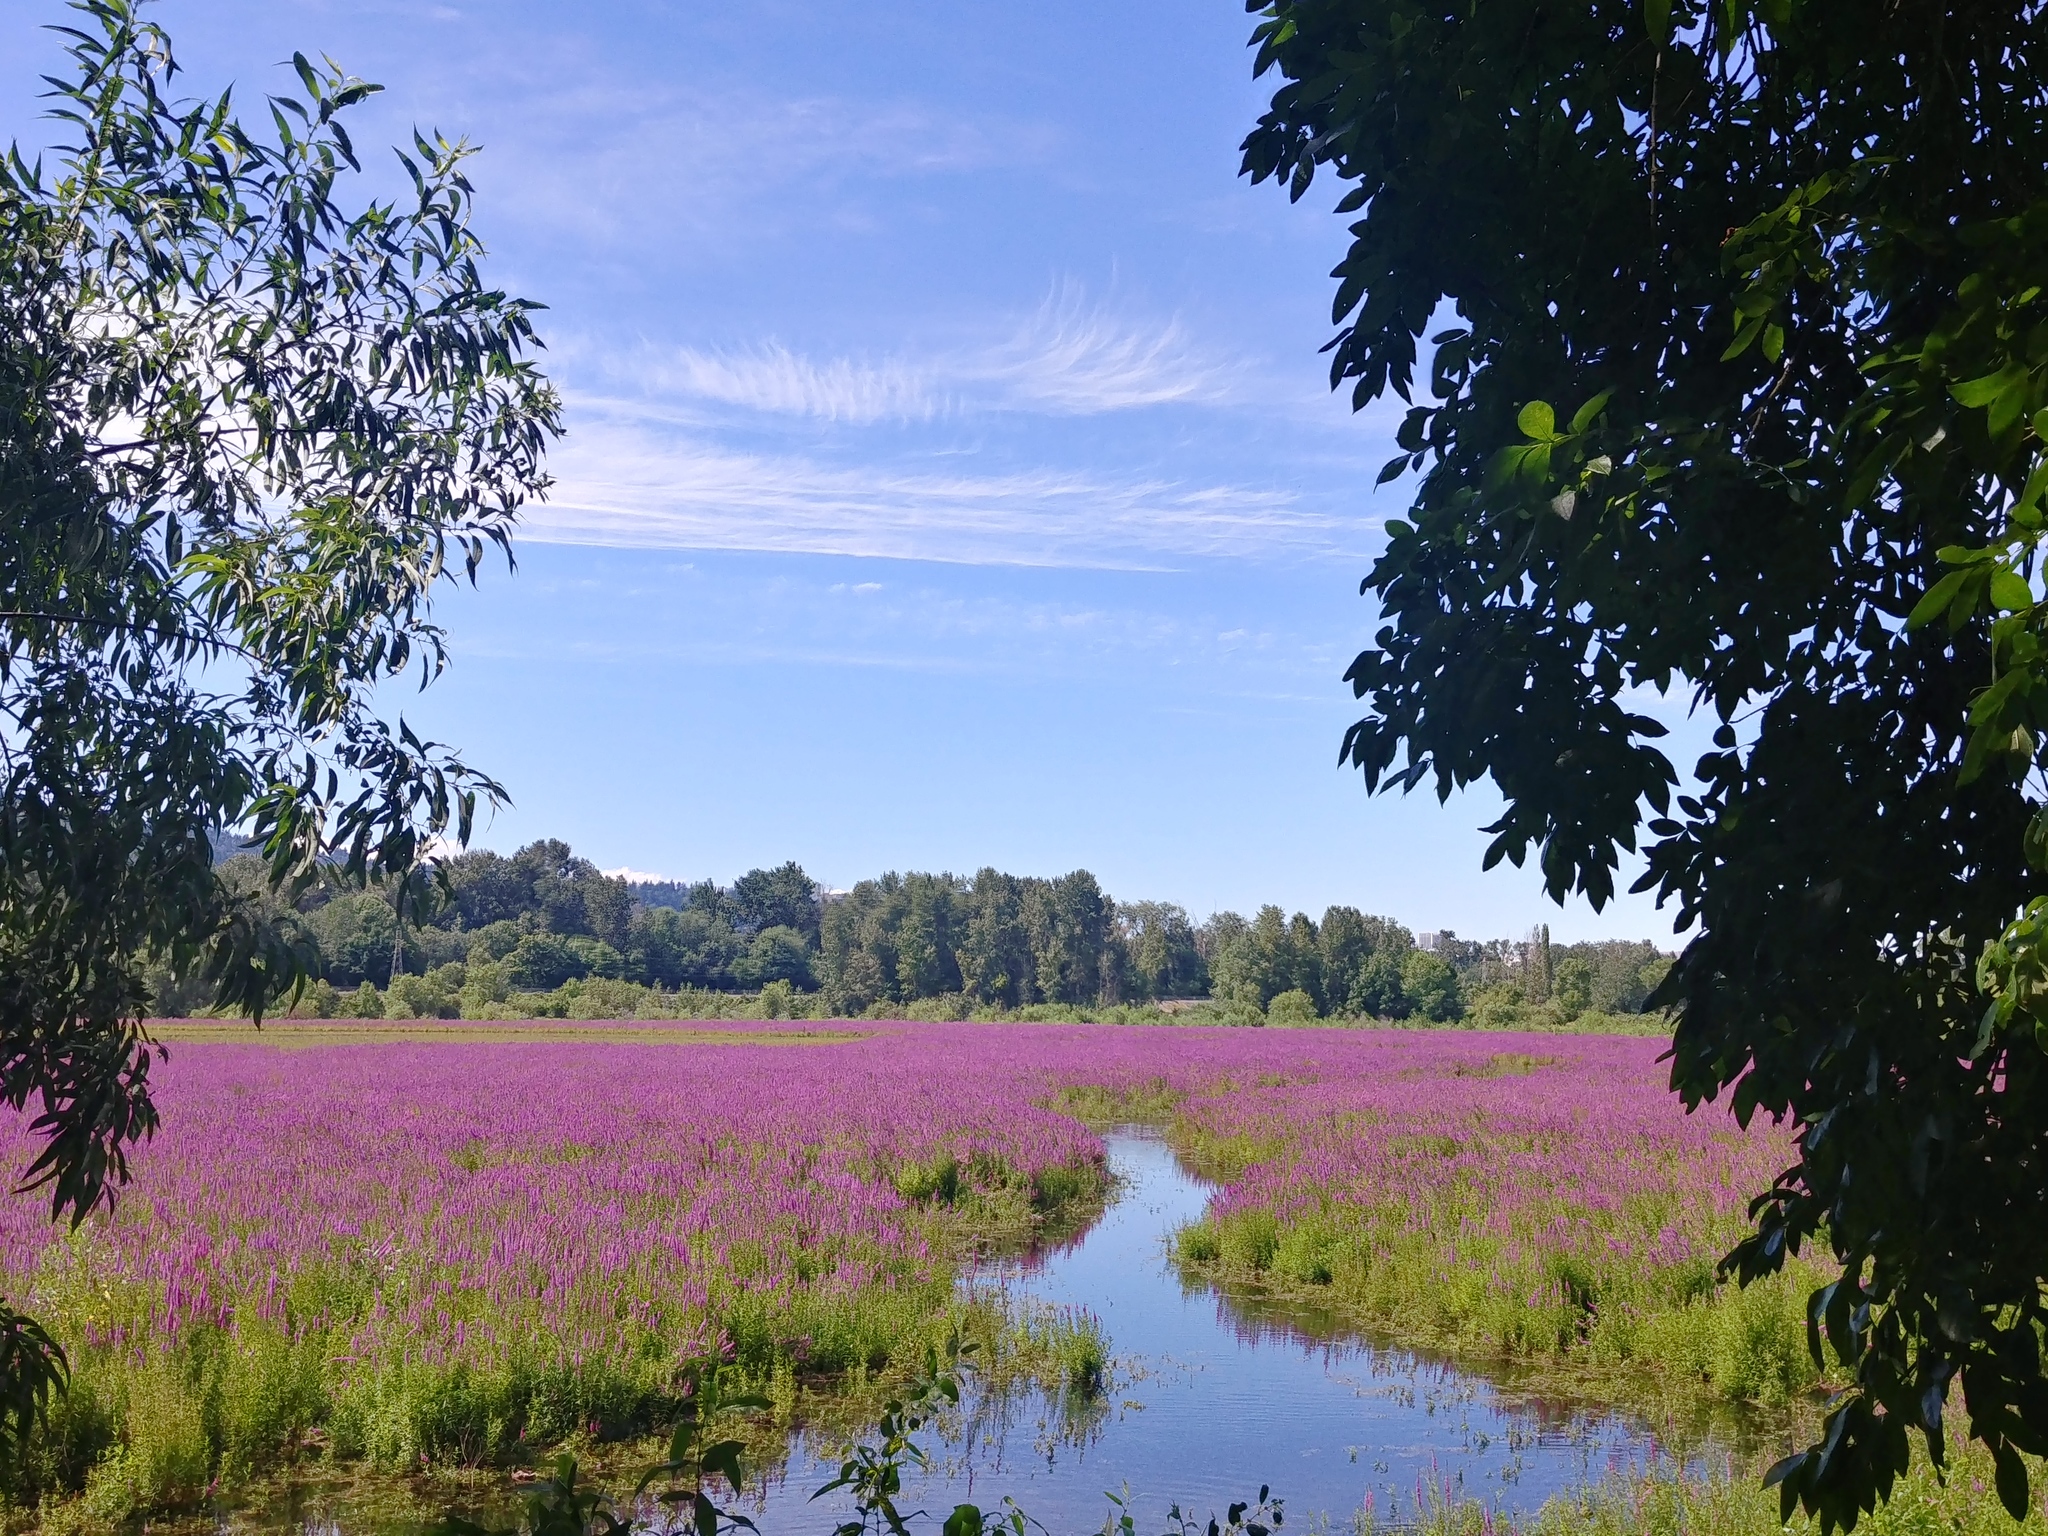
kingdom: Plantae
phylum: Tracheophyta
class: Magnoliopsida
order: Myrtales
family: Lythraceae
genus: Lythrum
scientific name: Lythrum salicaria
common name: Purple loosestrife
